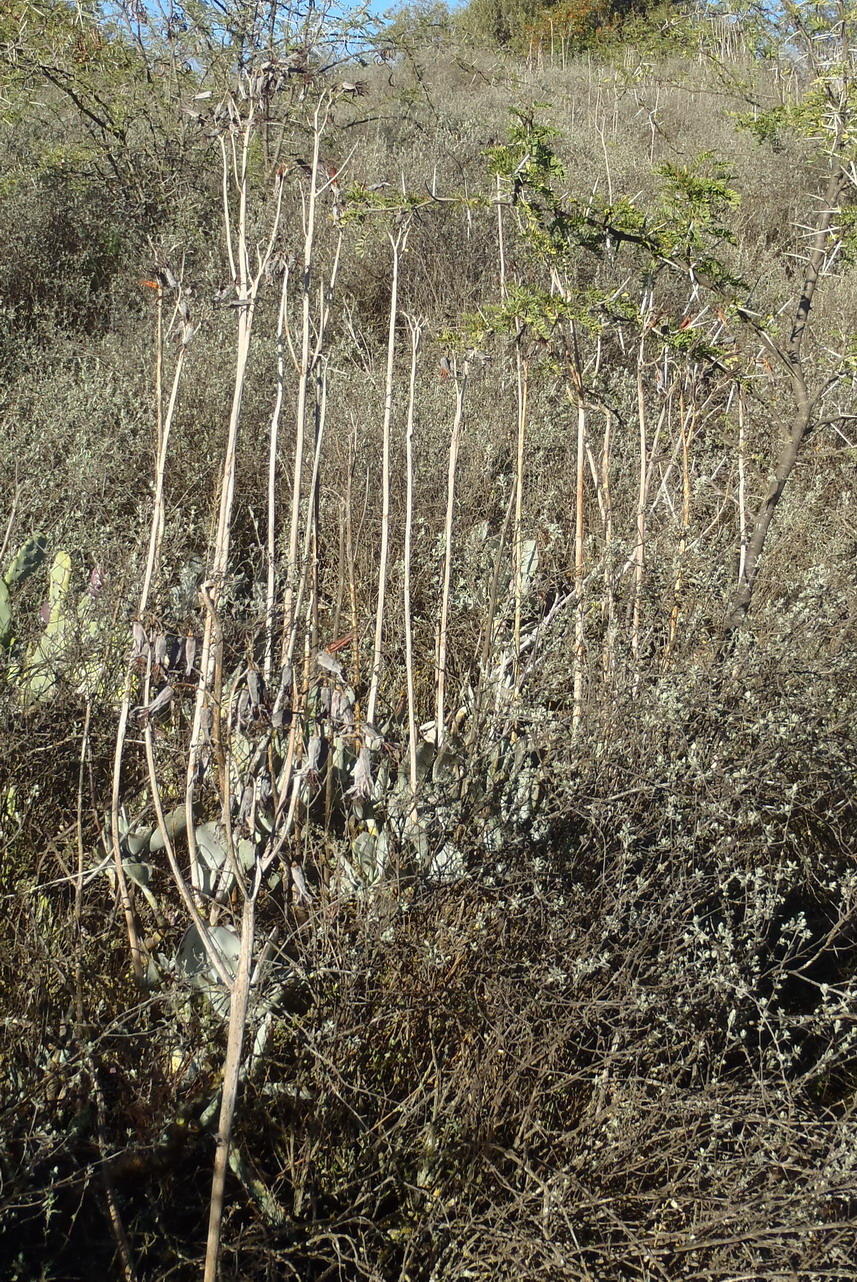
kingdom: Plantae
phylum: Tracheophyta
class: Magnoliopsida
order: Saxifragales
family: Crassulaceae
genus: Cotyledon
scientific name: Cotyledon orbiculata
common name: Pig's ear
